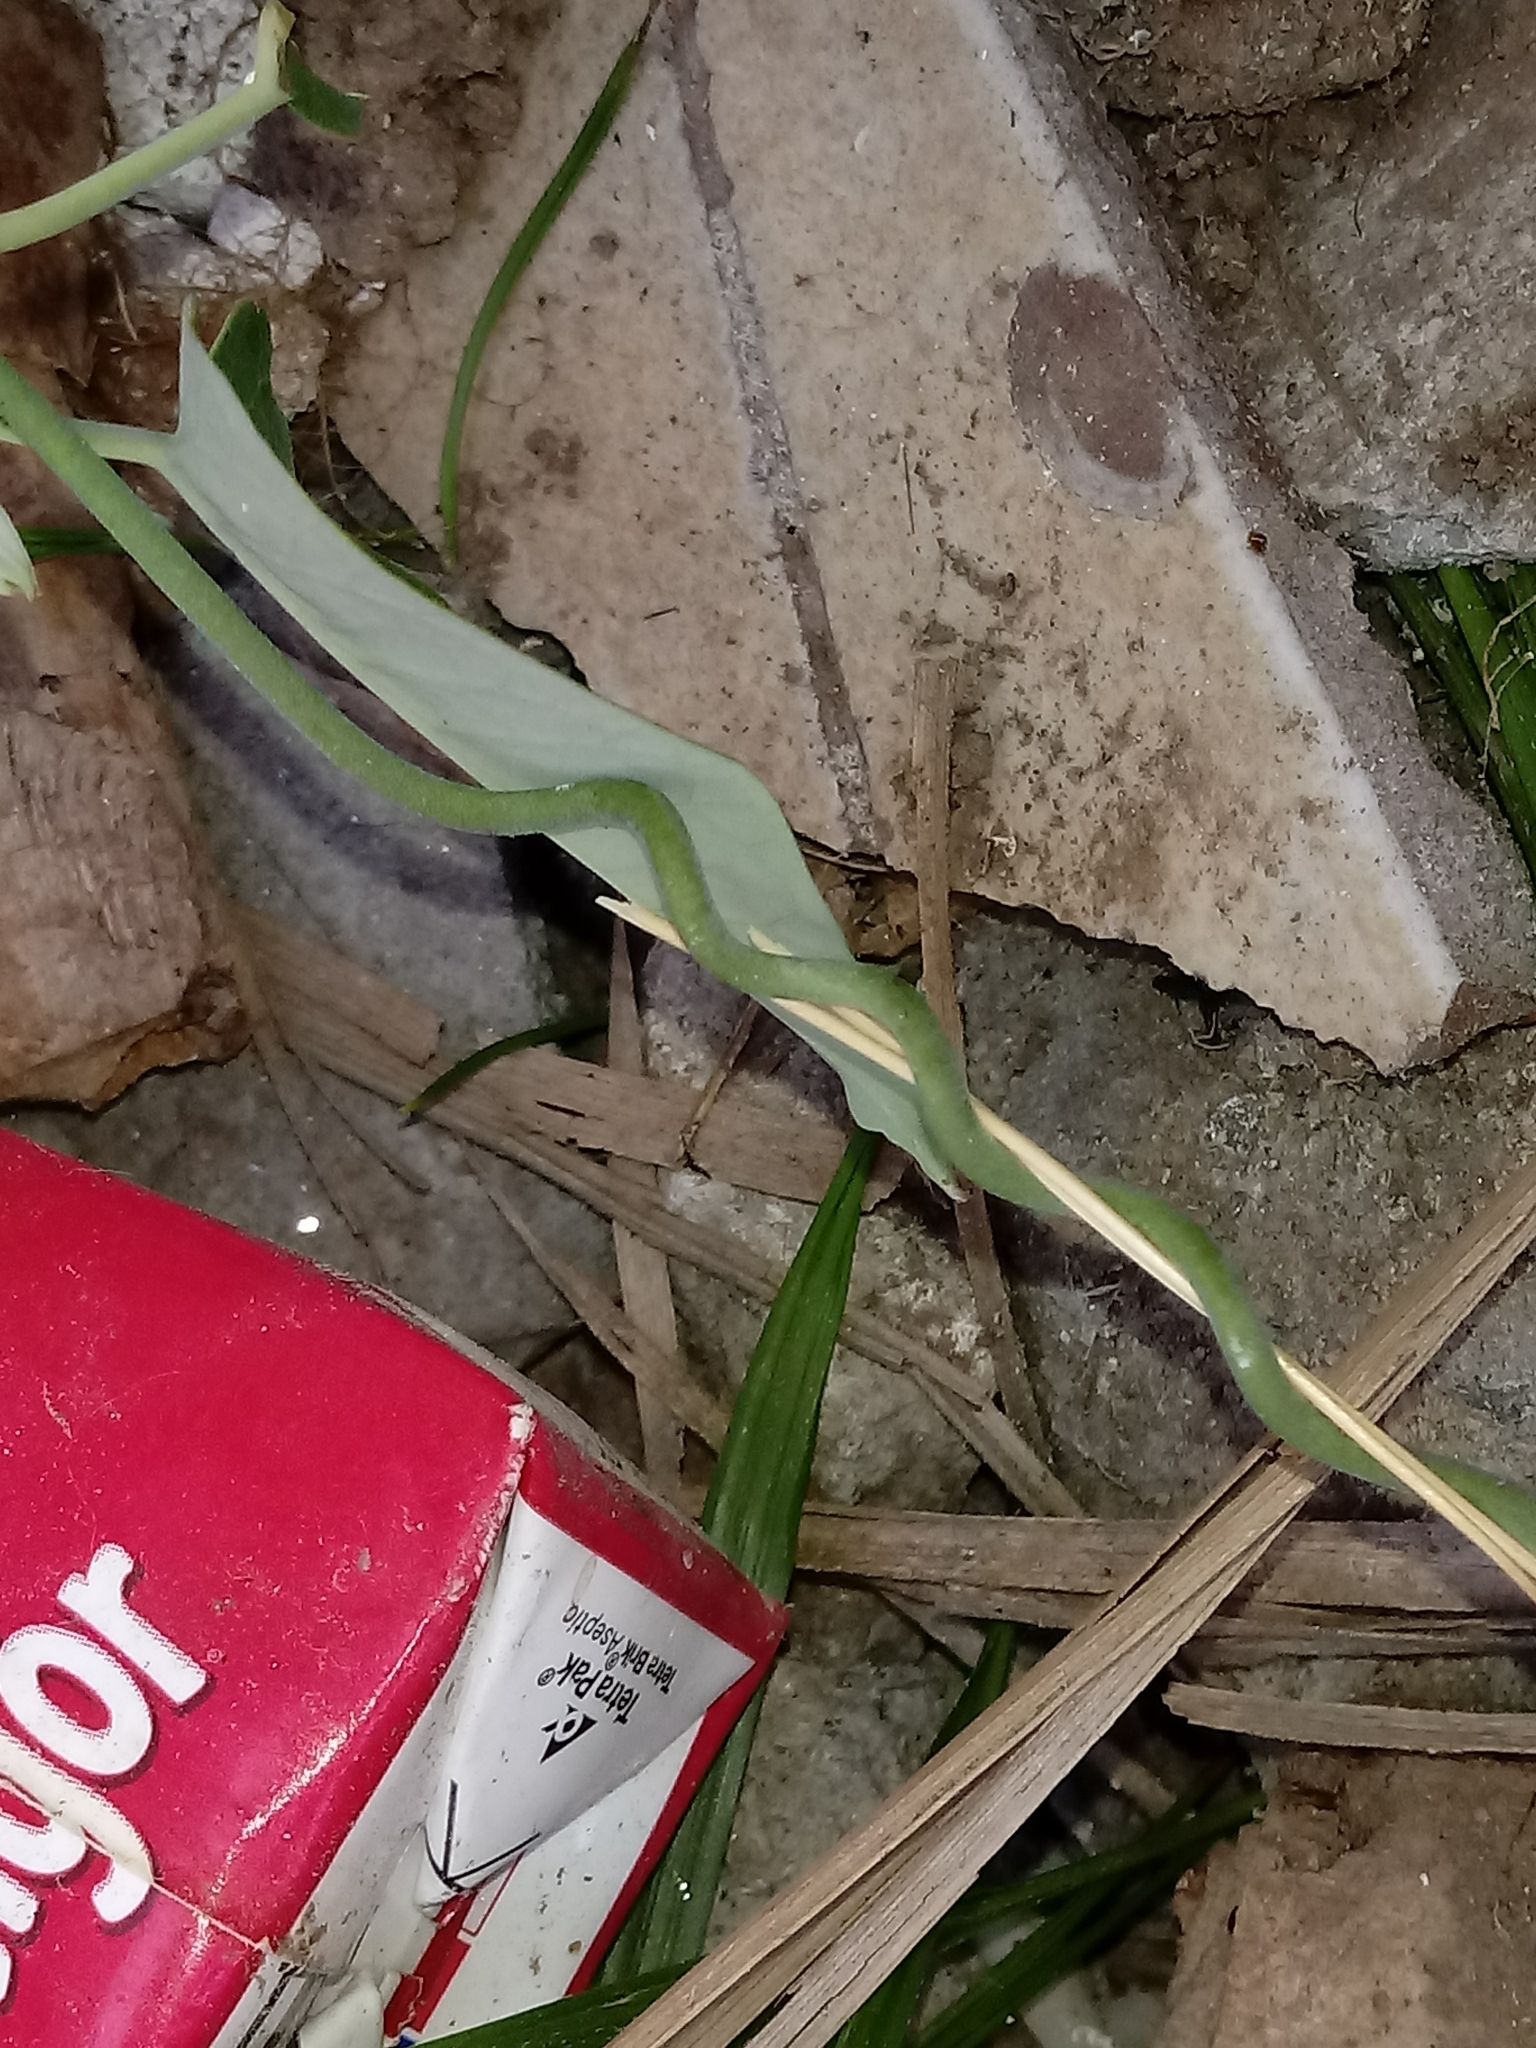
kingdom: Plantae
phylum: Tracheophyta
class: Magnoliopsida
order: Gentianales
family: Apocynaceae
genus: Araujia
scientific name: Araujia sericifera
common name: White bladderflower
